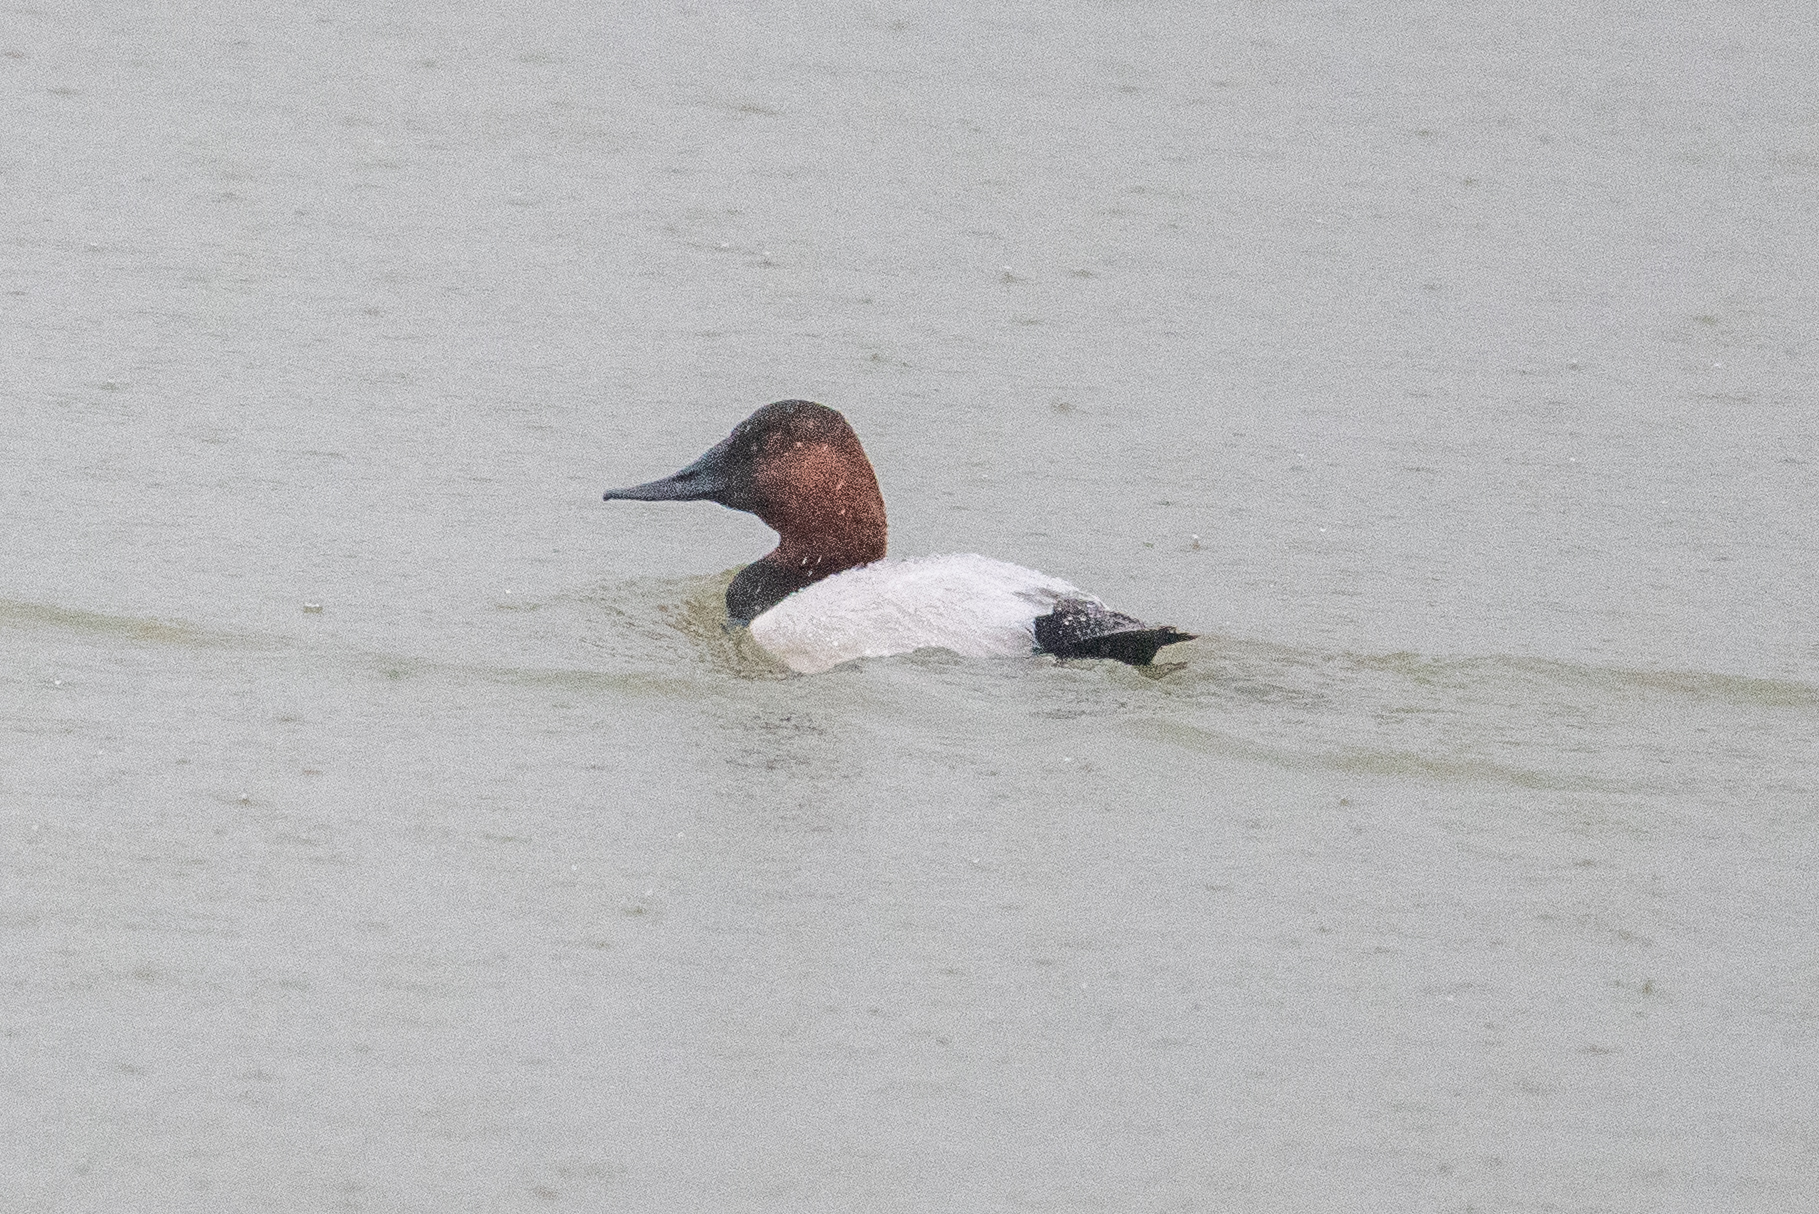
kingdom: Animalia
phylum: Chordata
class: Aves
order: Anseriformes
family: Anatidae
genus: Aythya
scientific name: Aythya valisineria
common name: Canvasback
